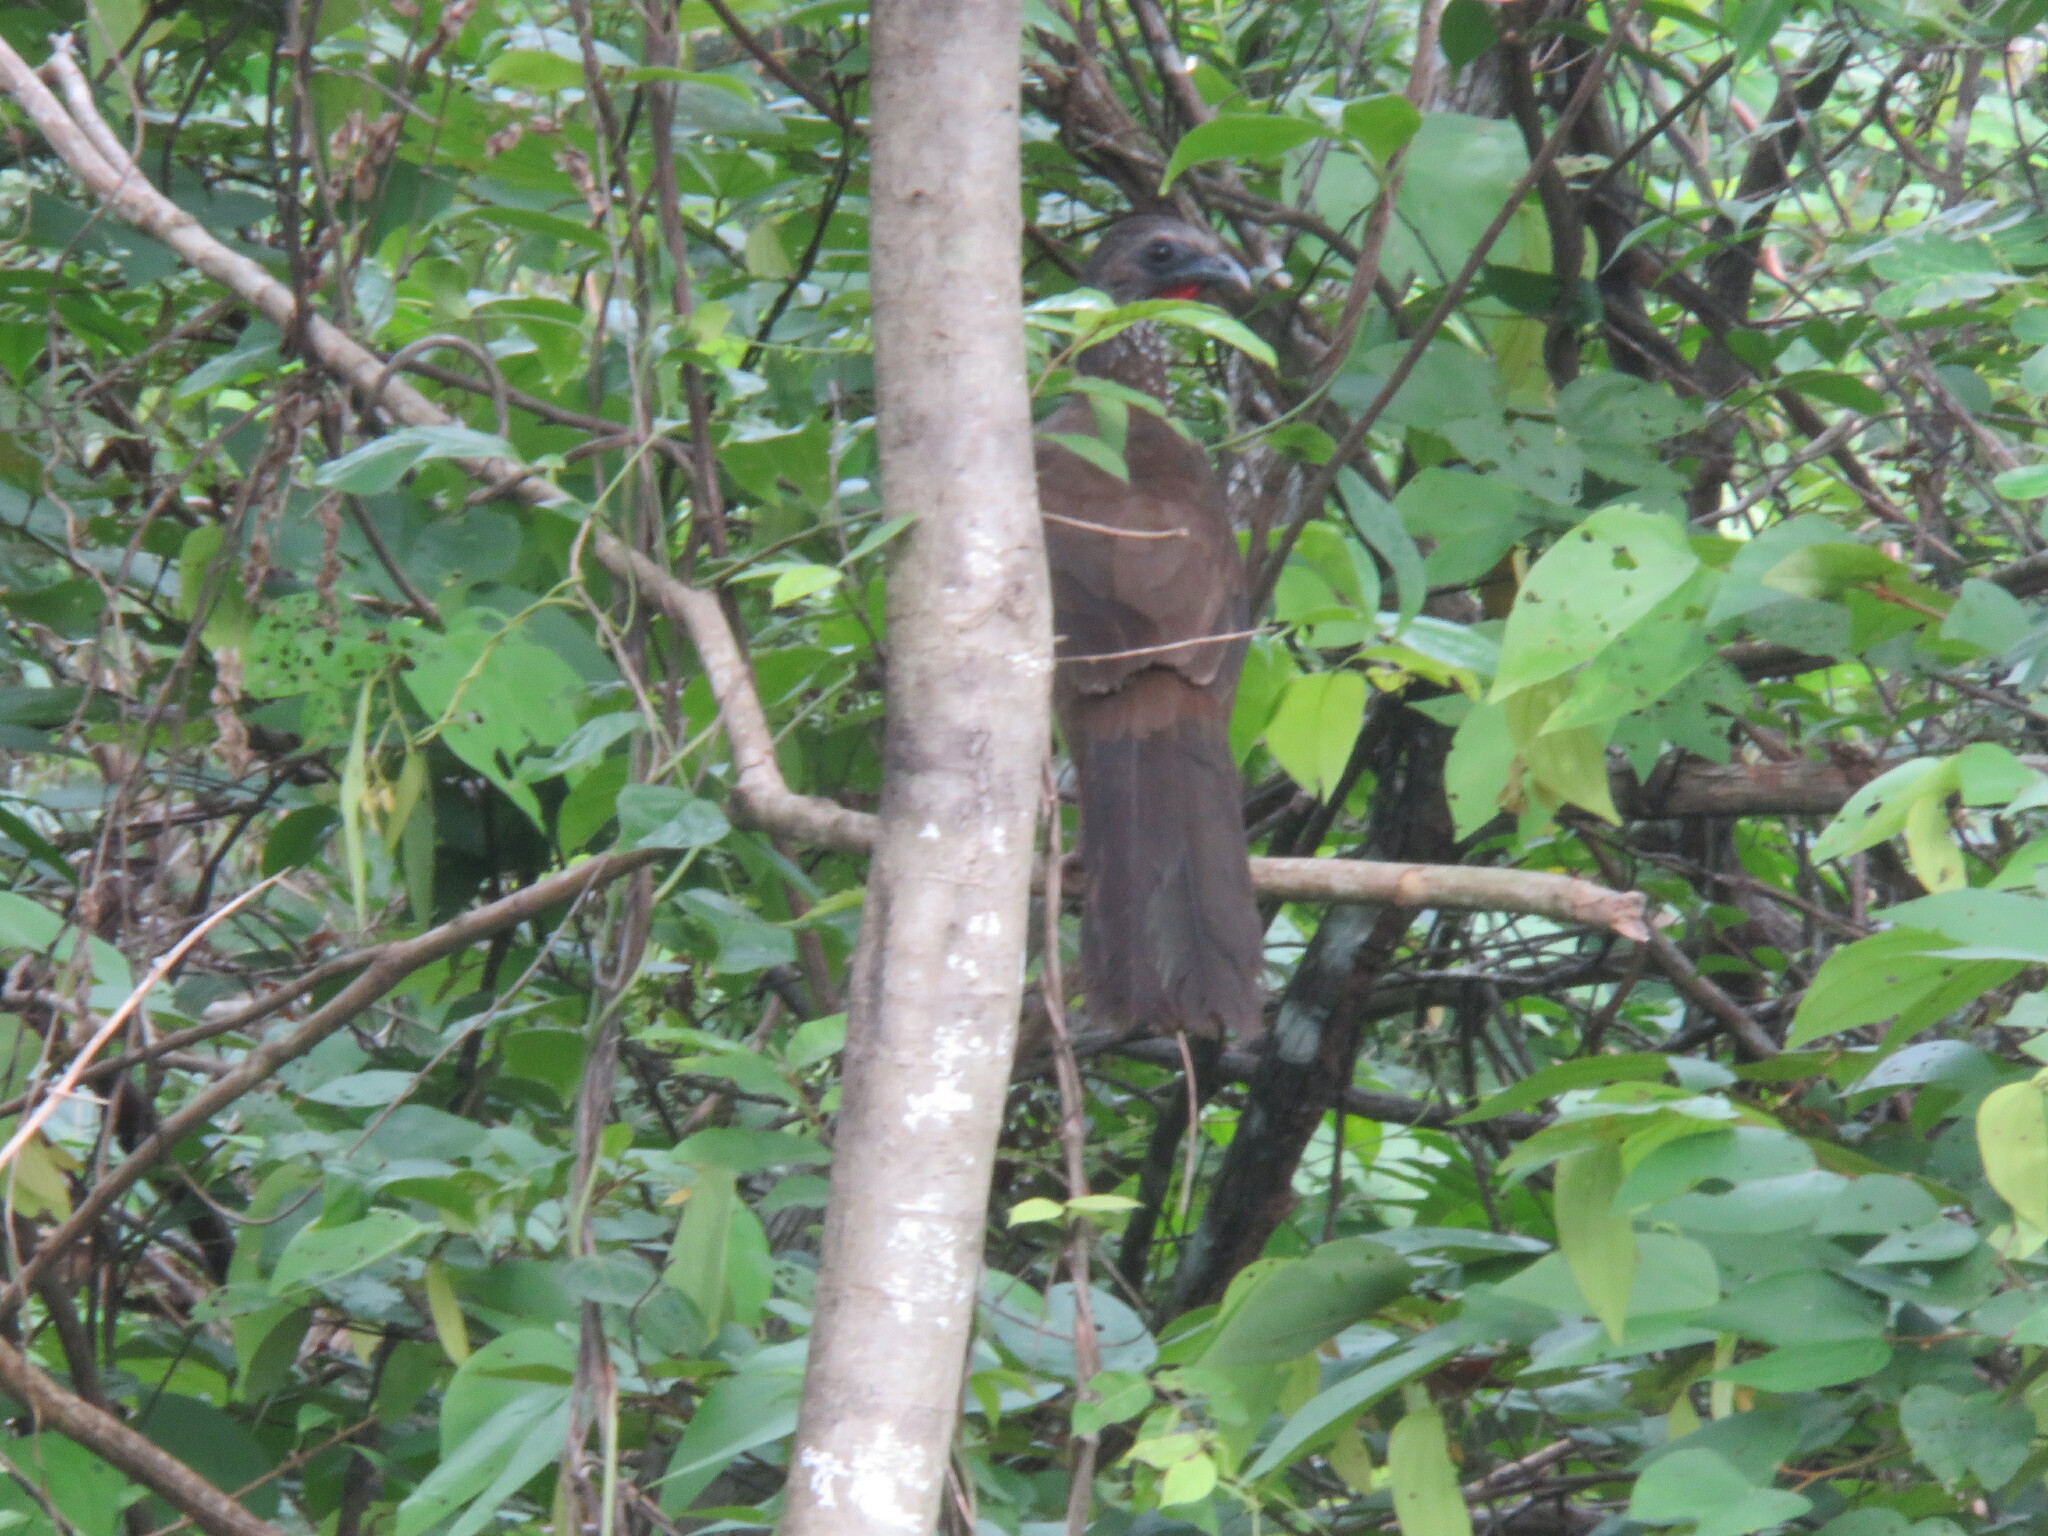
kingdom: Animalia
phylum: Chordata
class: Aves
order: Galliformes
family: Cracidae
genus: Ortalis
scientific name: Ortalis guttata
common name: Speckled chachalaca
